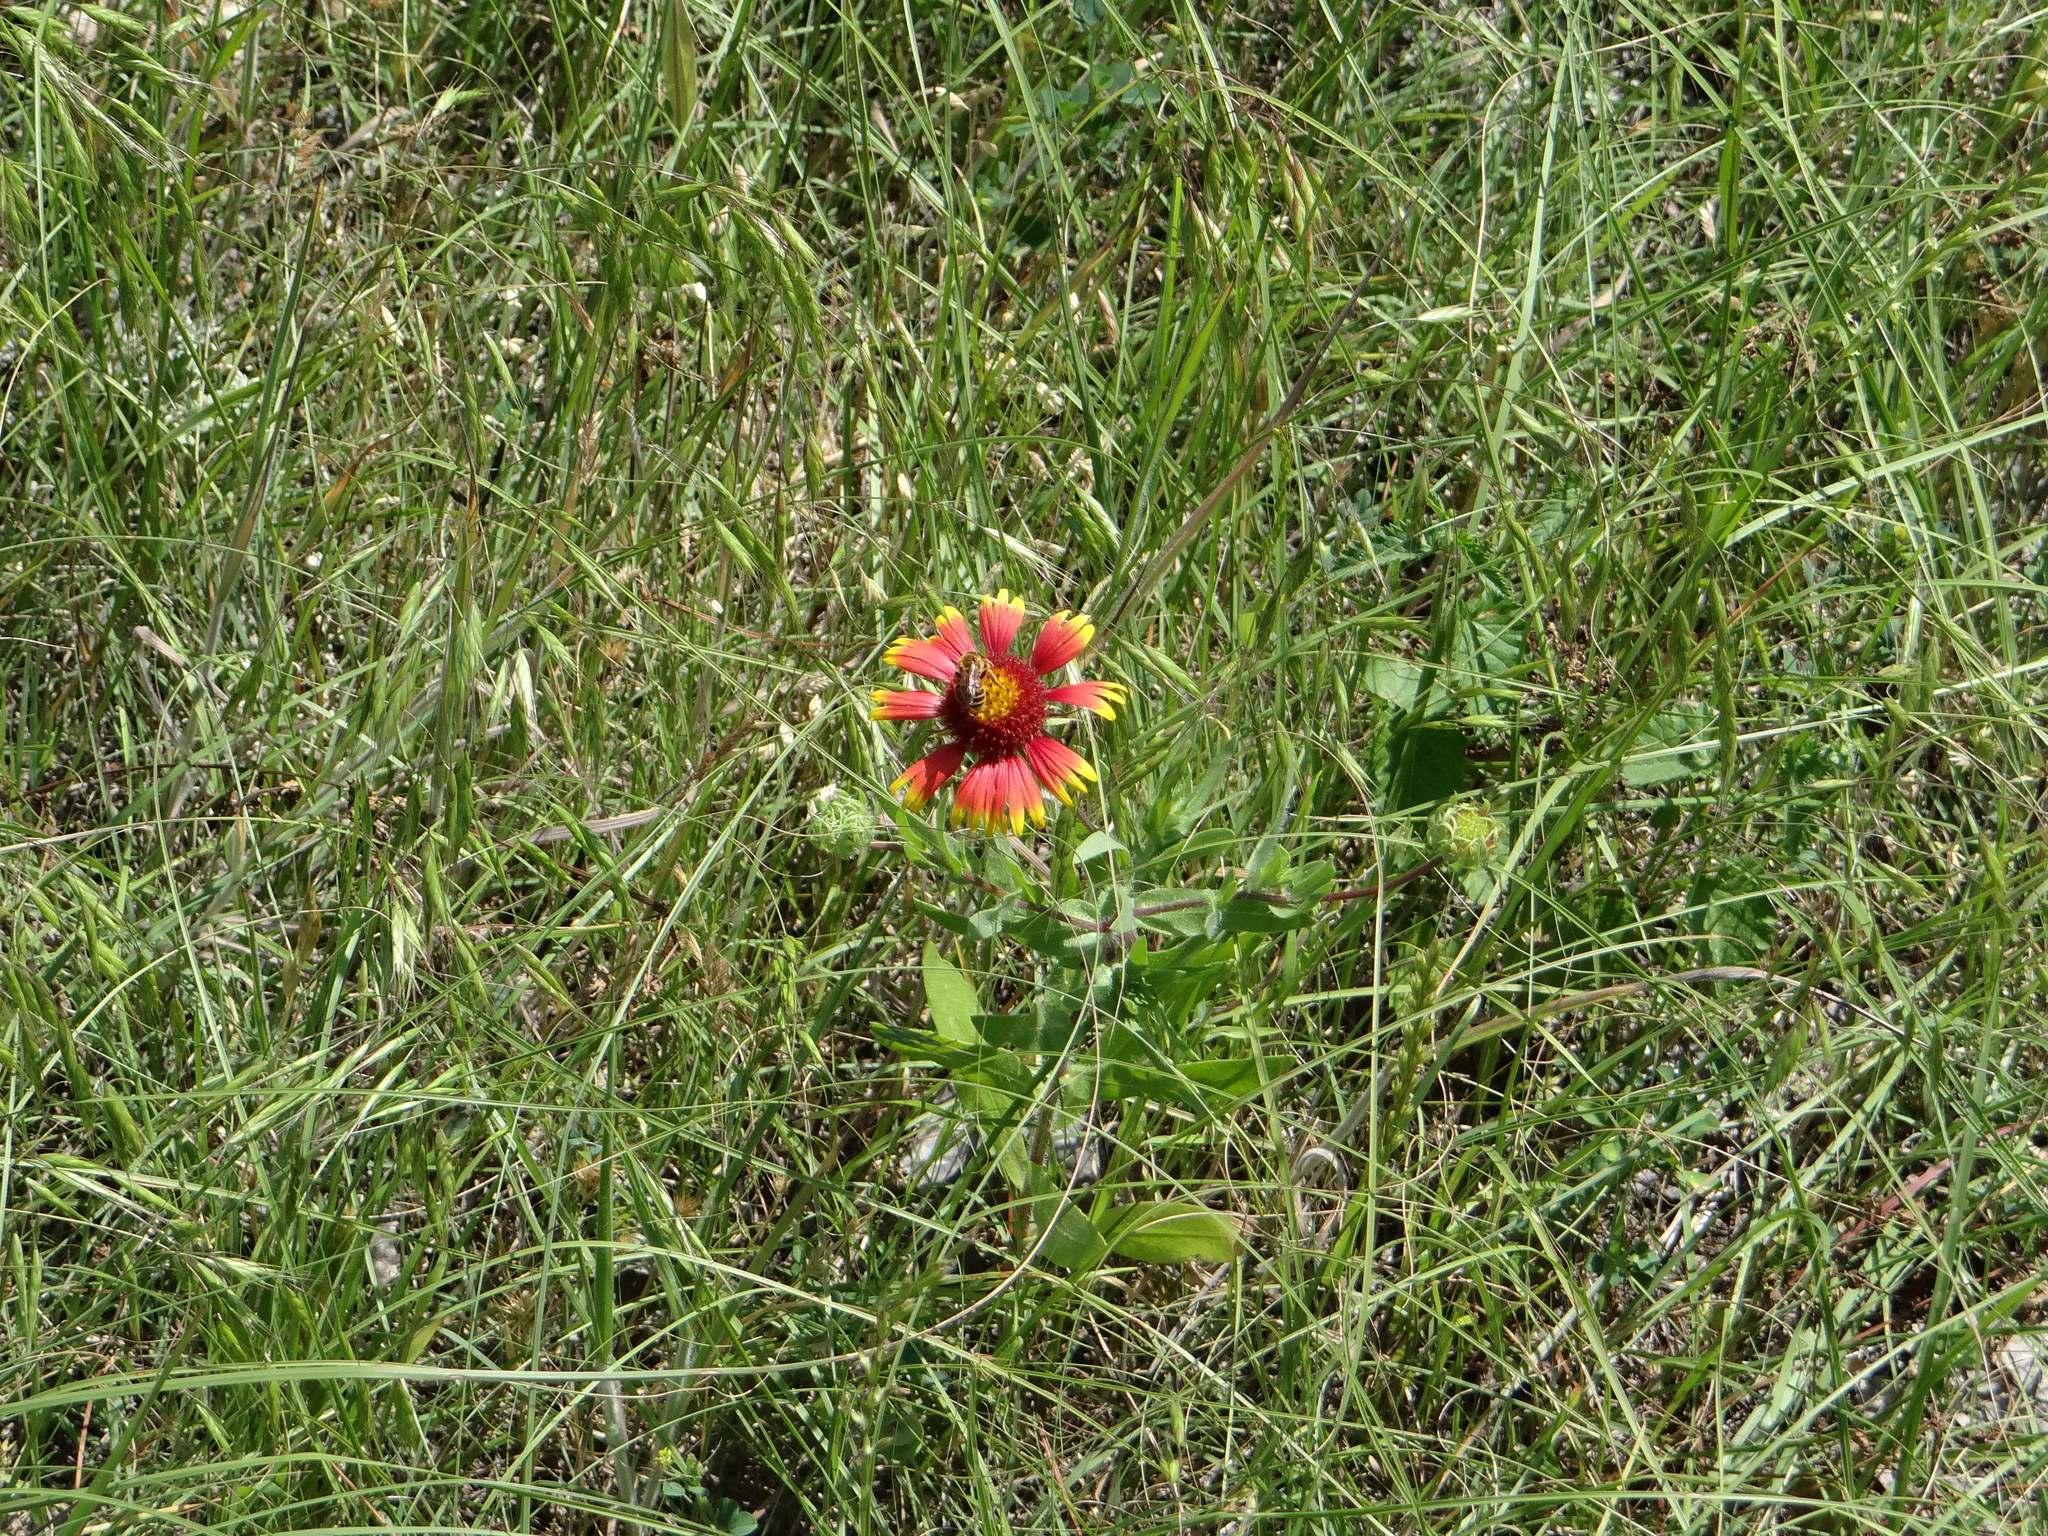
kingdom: Plantae
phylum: Tracheophyta
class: Magnoliopsida
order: Asterales
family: Asteraceae
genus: Gaillardia
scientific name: Gaillardia pulchella
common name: Firewheel
